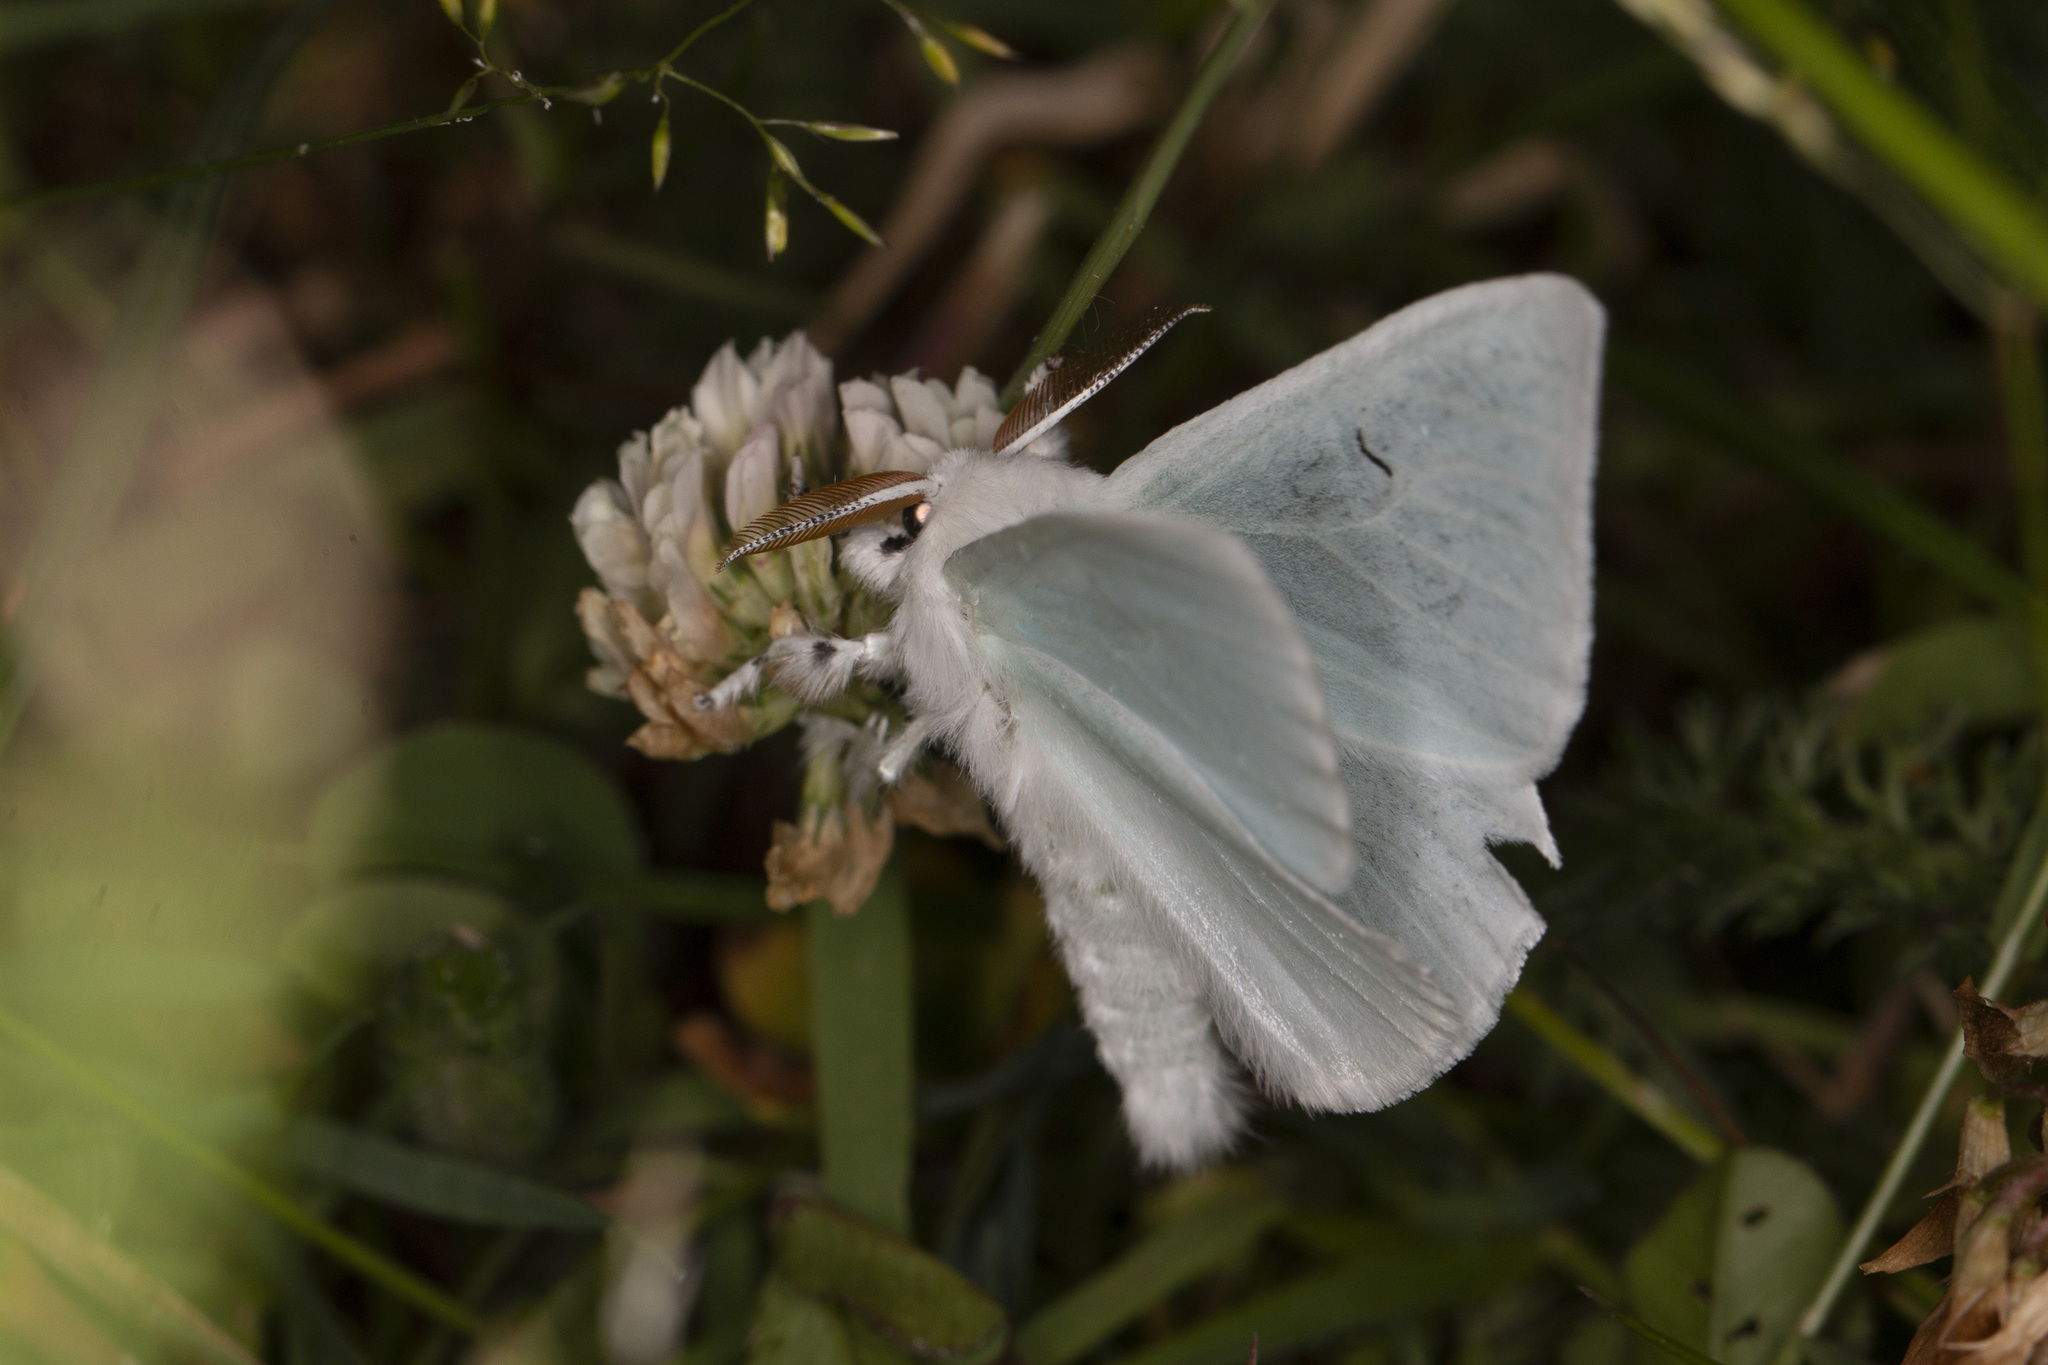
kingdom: Animalia
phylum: Arthropoda
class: Insecta
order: Lepidoptera
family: Erebidae
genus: Arctornis
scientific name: Arctornis l-nigrum
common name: Black v moth
